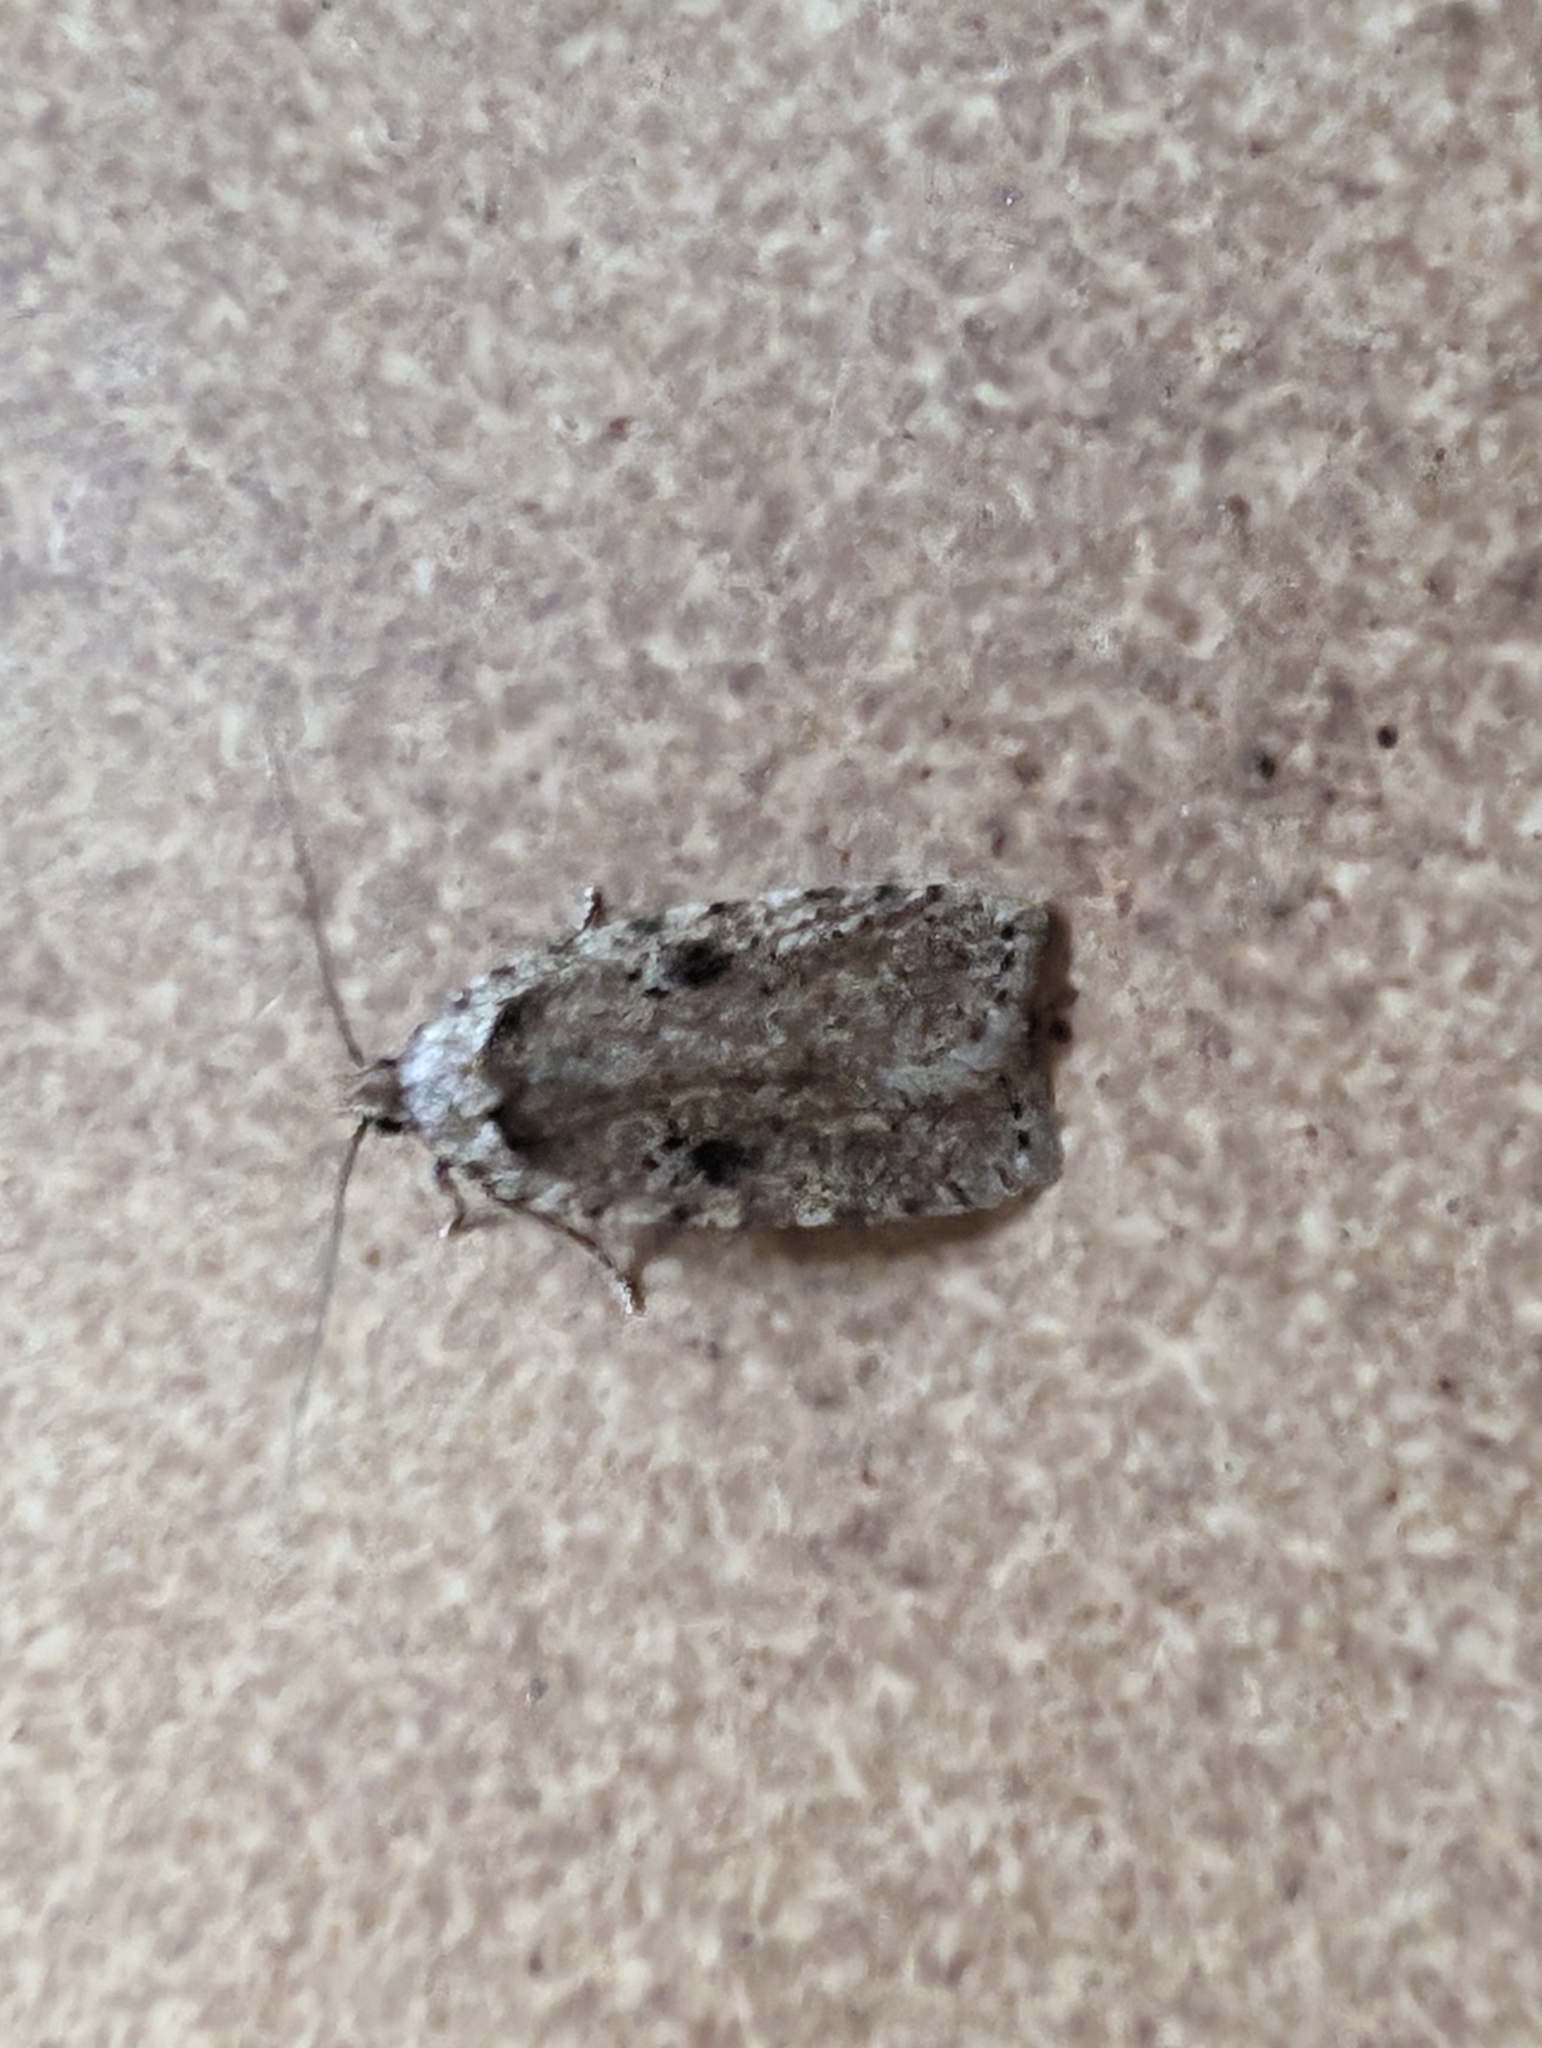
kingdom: Animalia
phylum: Arthropoda
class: Insecta
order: Lepidoptera
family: Depressariidae
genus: Agonopterix
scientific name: Agonopterix arenella
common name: Brindled flat-body
